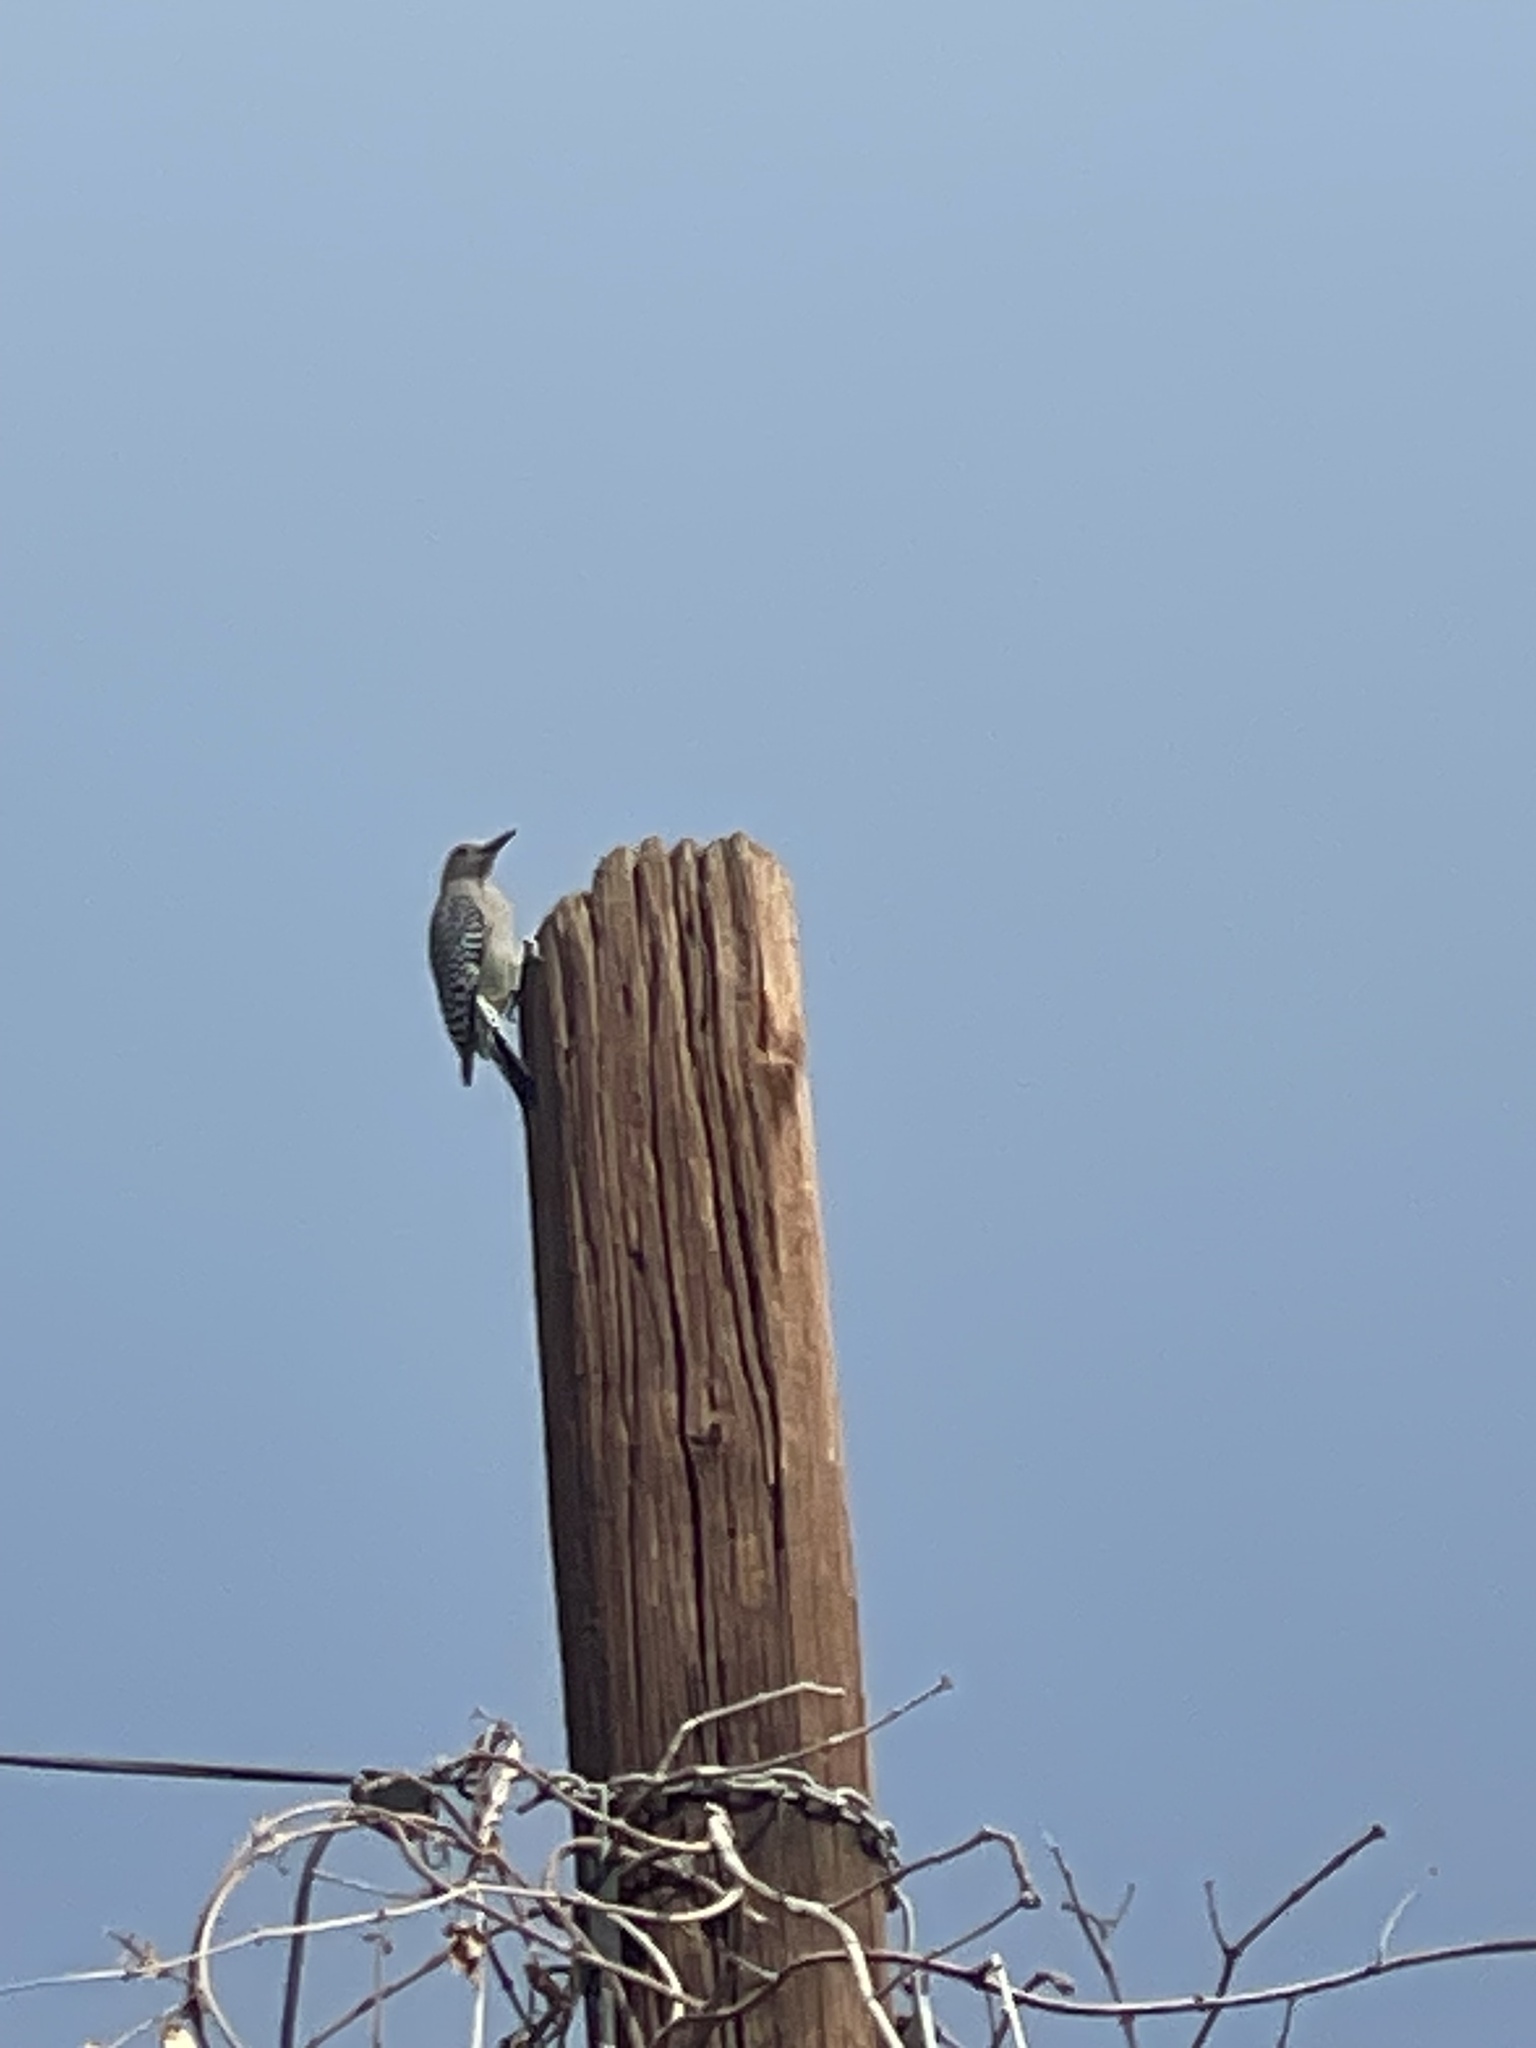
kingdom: Animalia
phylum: Chordata
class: Aves
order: Piciformes
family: Picidae
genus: Melanerpes
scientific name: Melanerpes uropygialis
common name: Gila woodpecker
